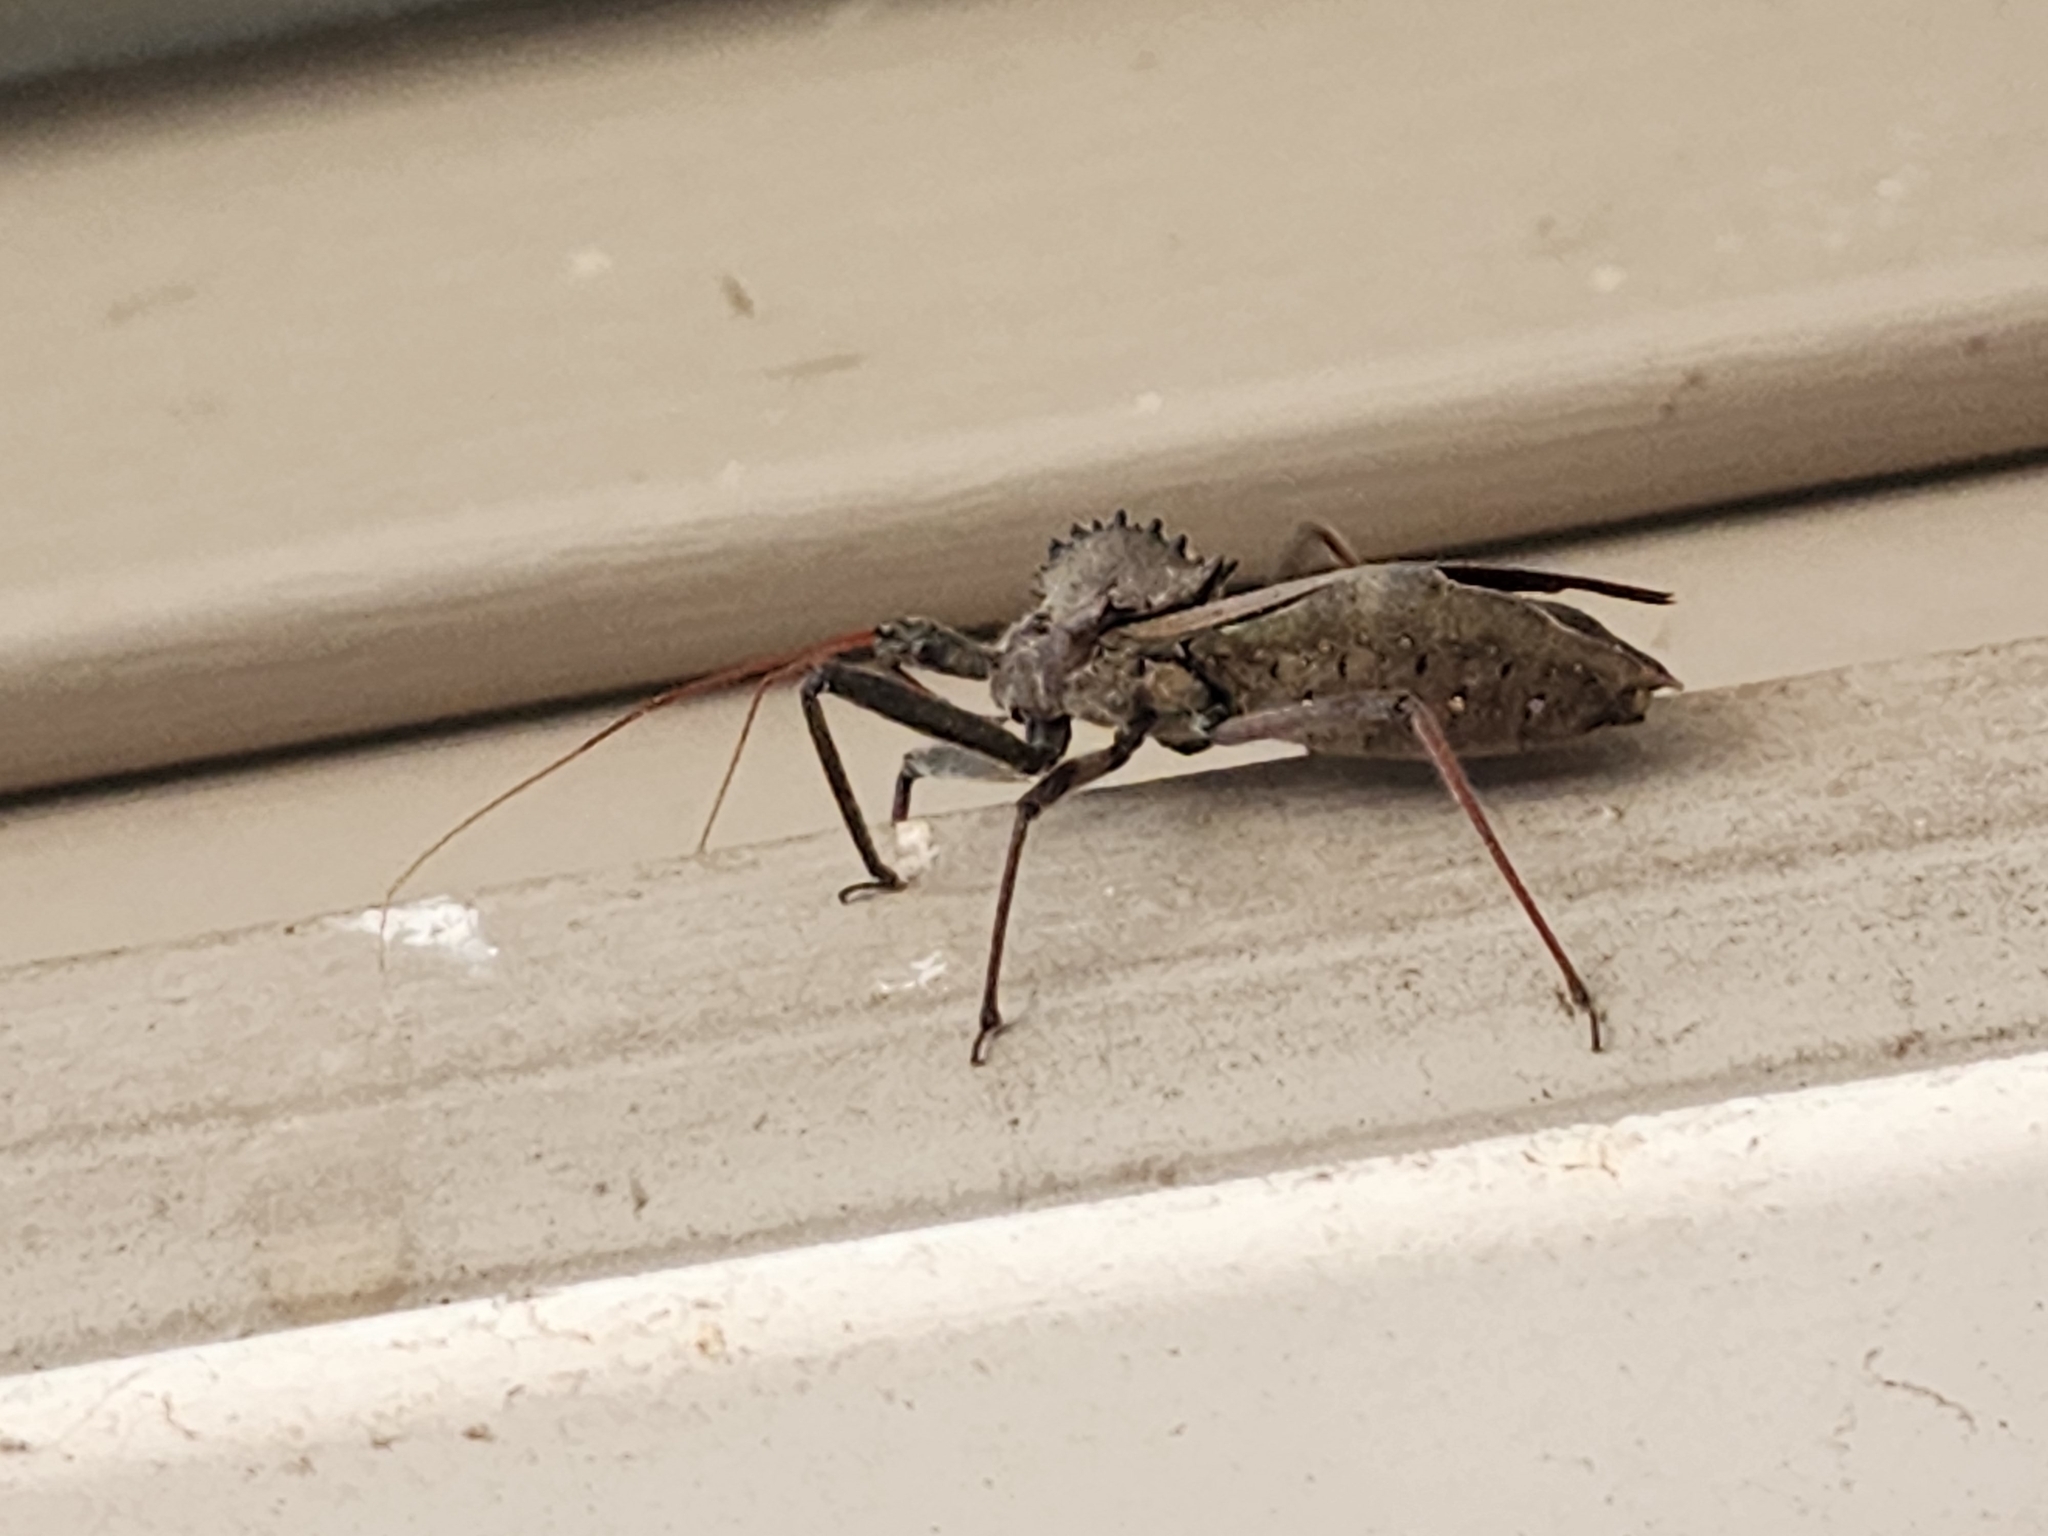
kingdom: Animalia
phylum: Arthropoda
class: Insecta
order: Hemiptera
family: Reduviidae
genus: Arilus
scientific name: Arilus cristatus
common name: North american wheel bug
